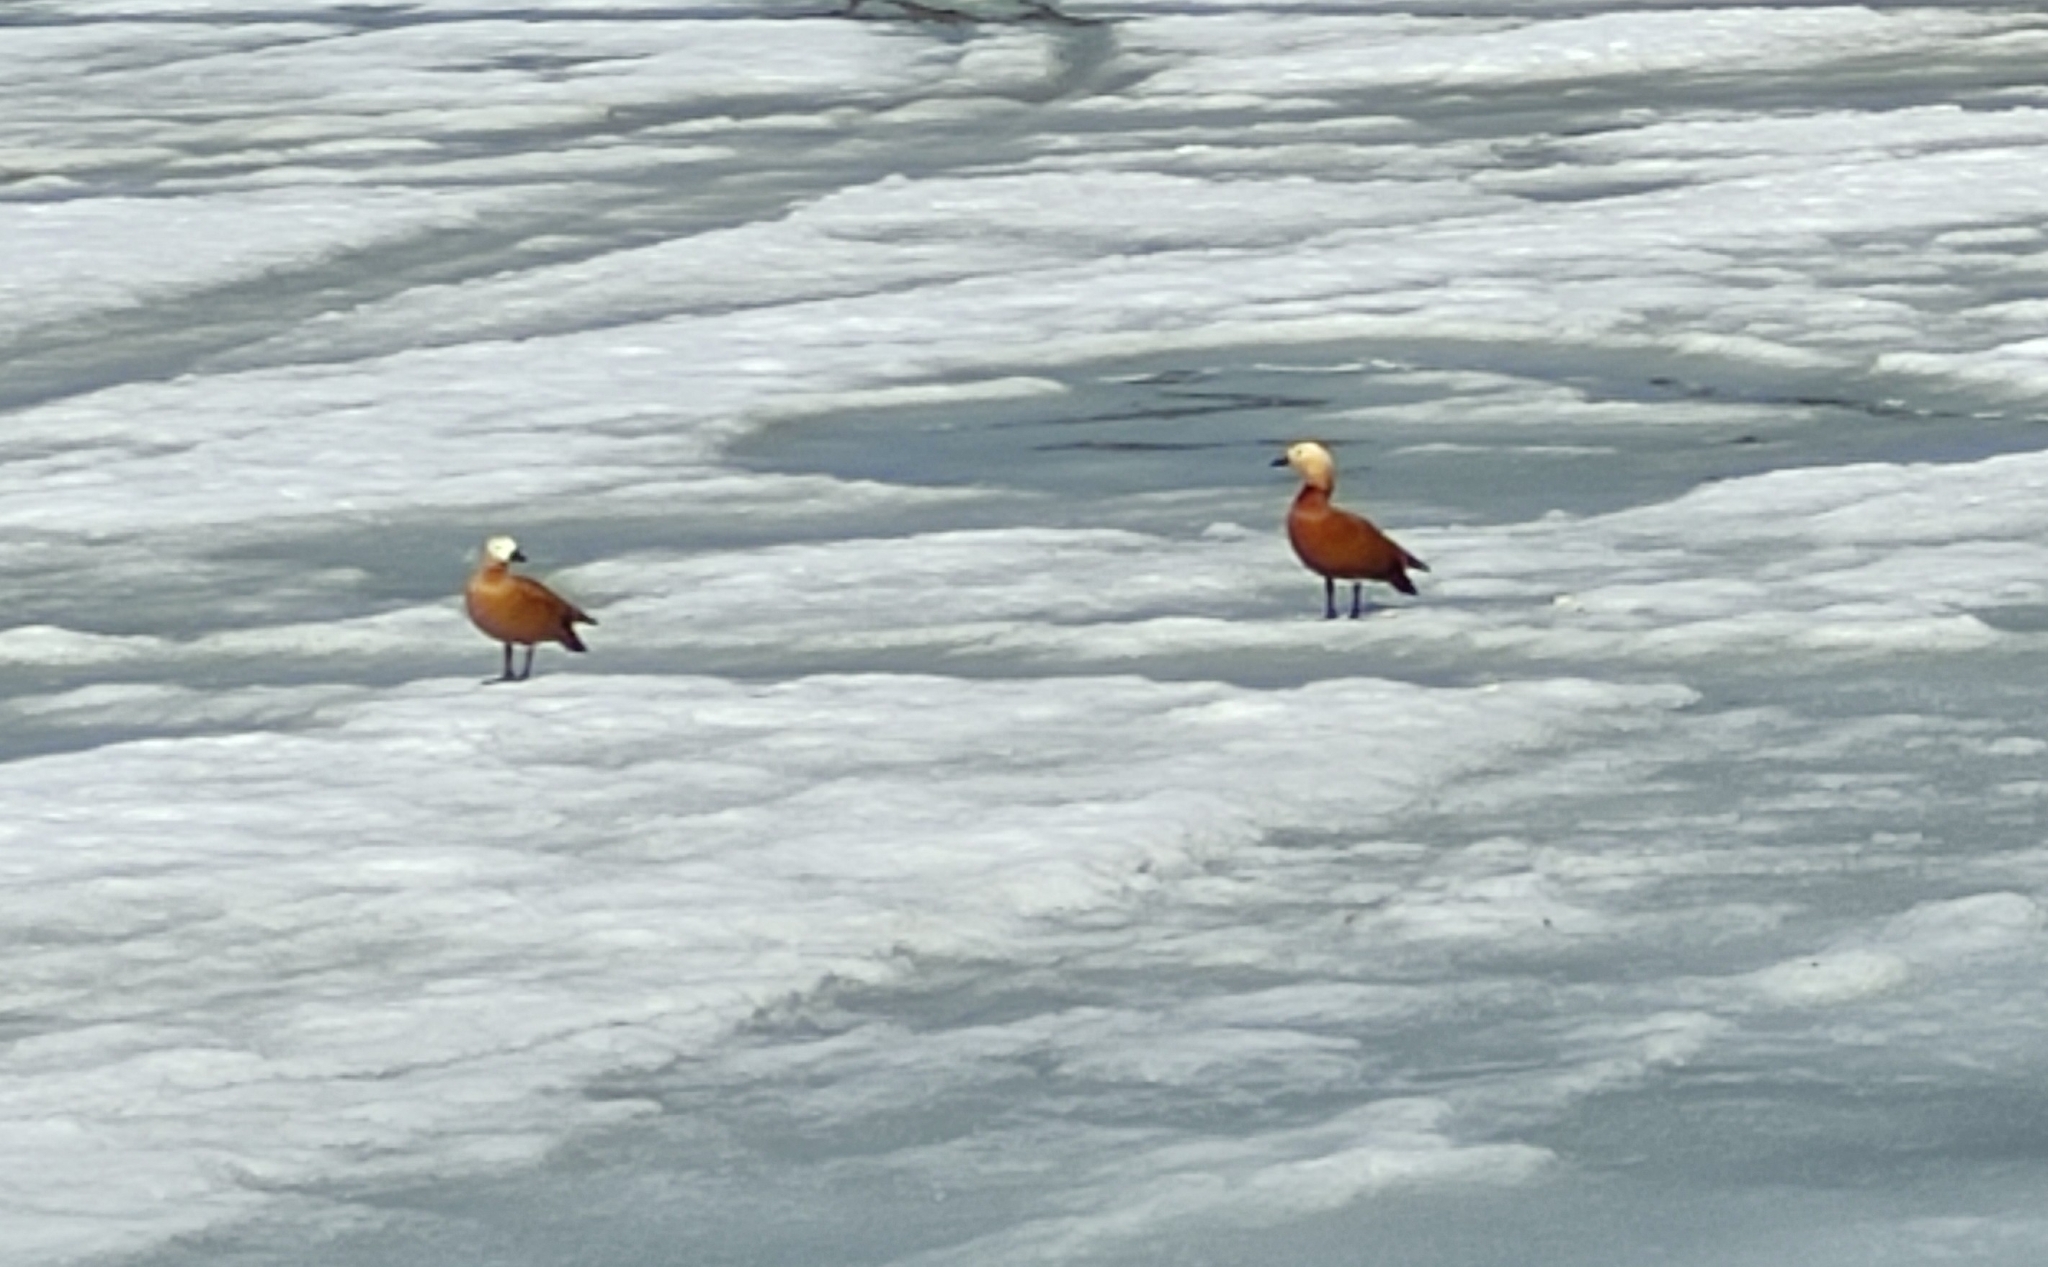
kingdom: Animalia
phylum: Chordata
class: Aves
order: Anseriformes
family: Anatidae
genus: Tadorna
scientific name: Tadorna ferruginea
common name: Ruddy shelduck
